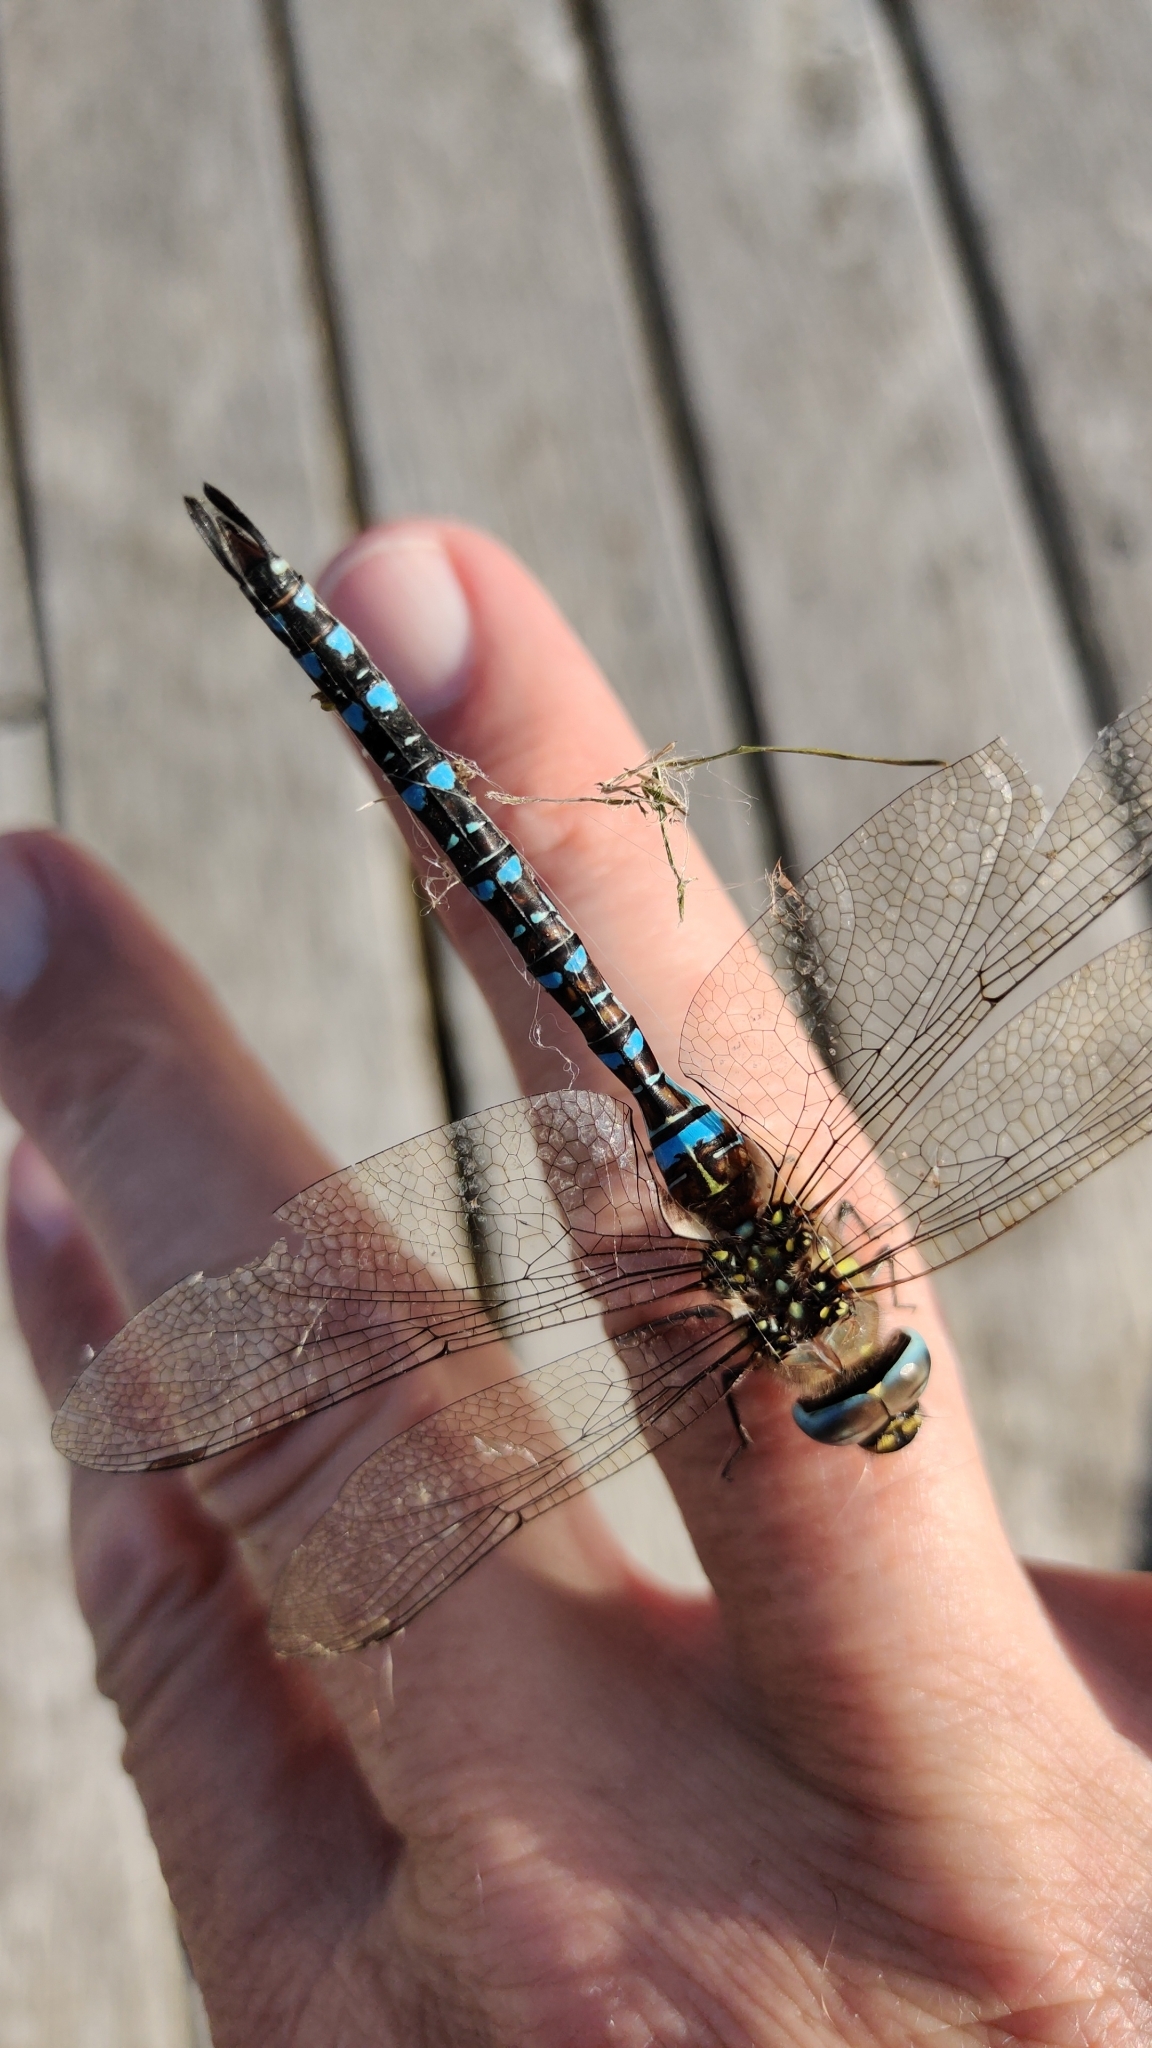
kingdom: Animalia
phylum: Arthropoda
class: Insecta
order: Odonata
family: Aeshnidae
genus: Aeshna
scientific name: Aeshna mixta
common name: Migrant hawker
